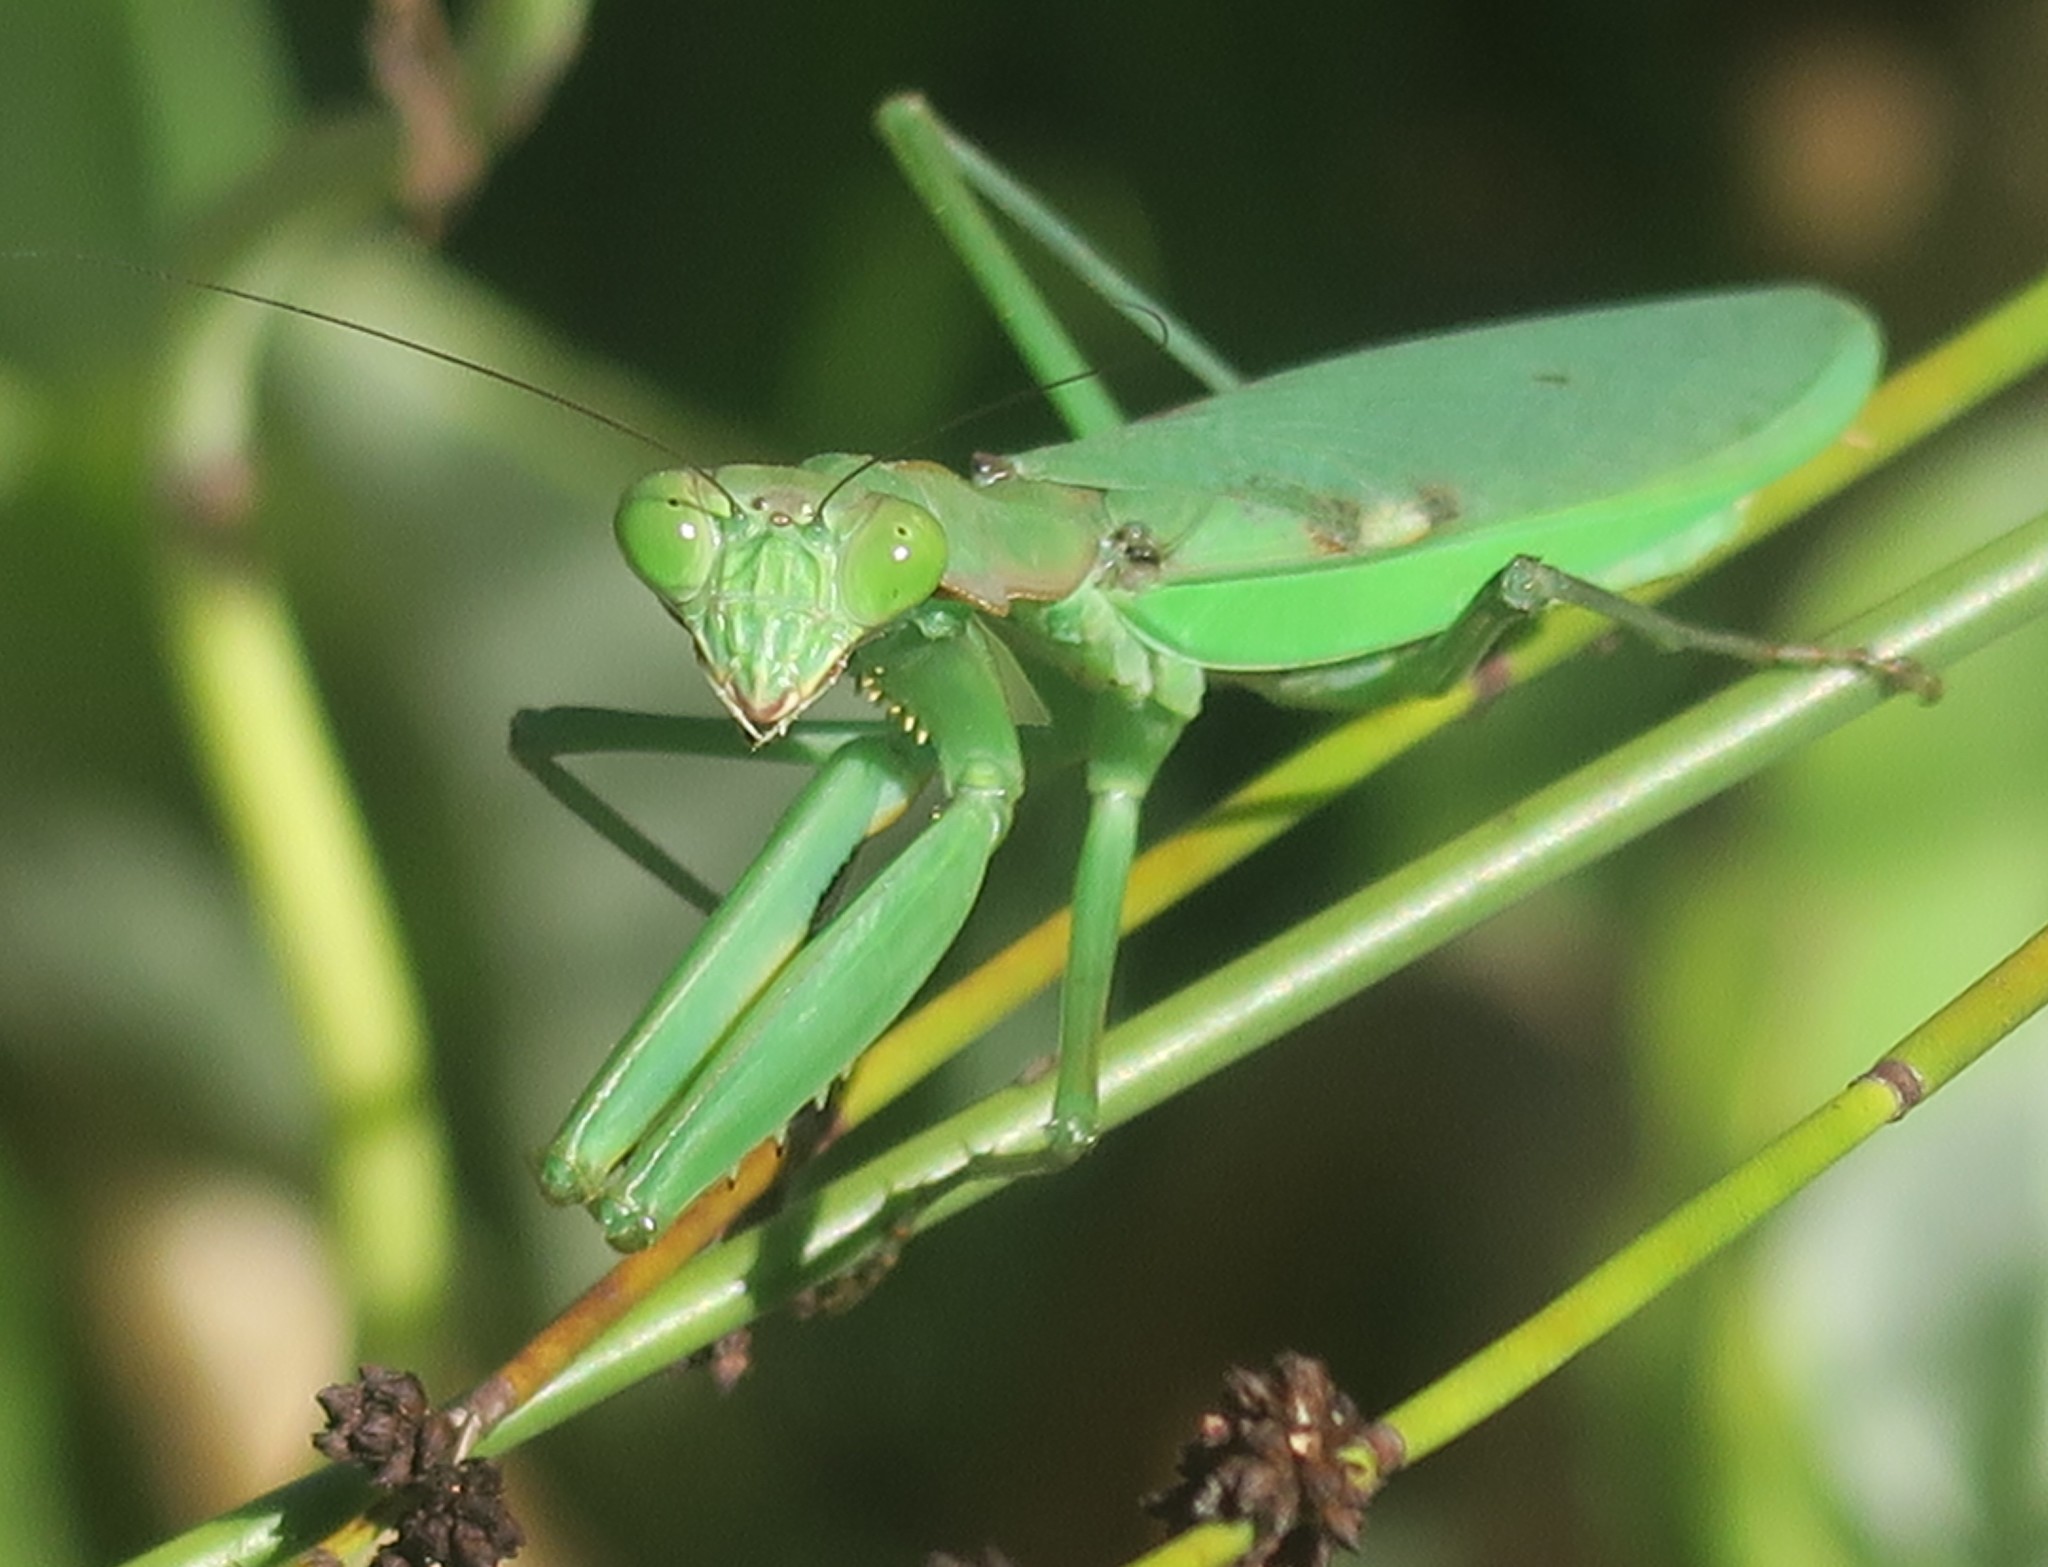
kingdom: Animalia
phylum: Arthropoda
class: Insecta
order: Mantodea
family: Mantidae
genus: Polyspilota
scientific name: Polyspilota aeruginosa
